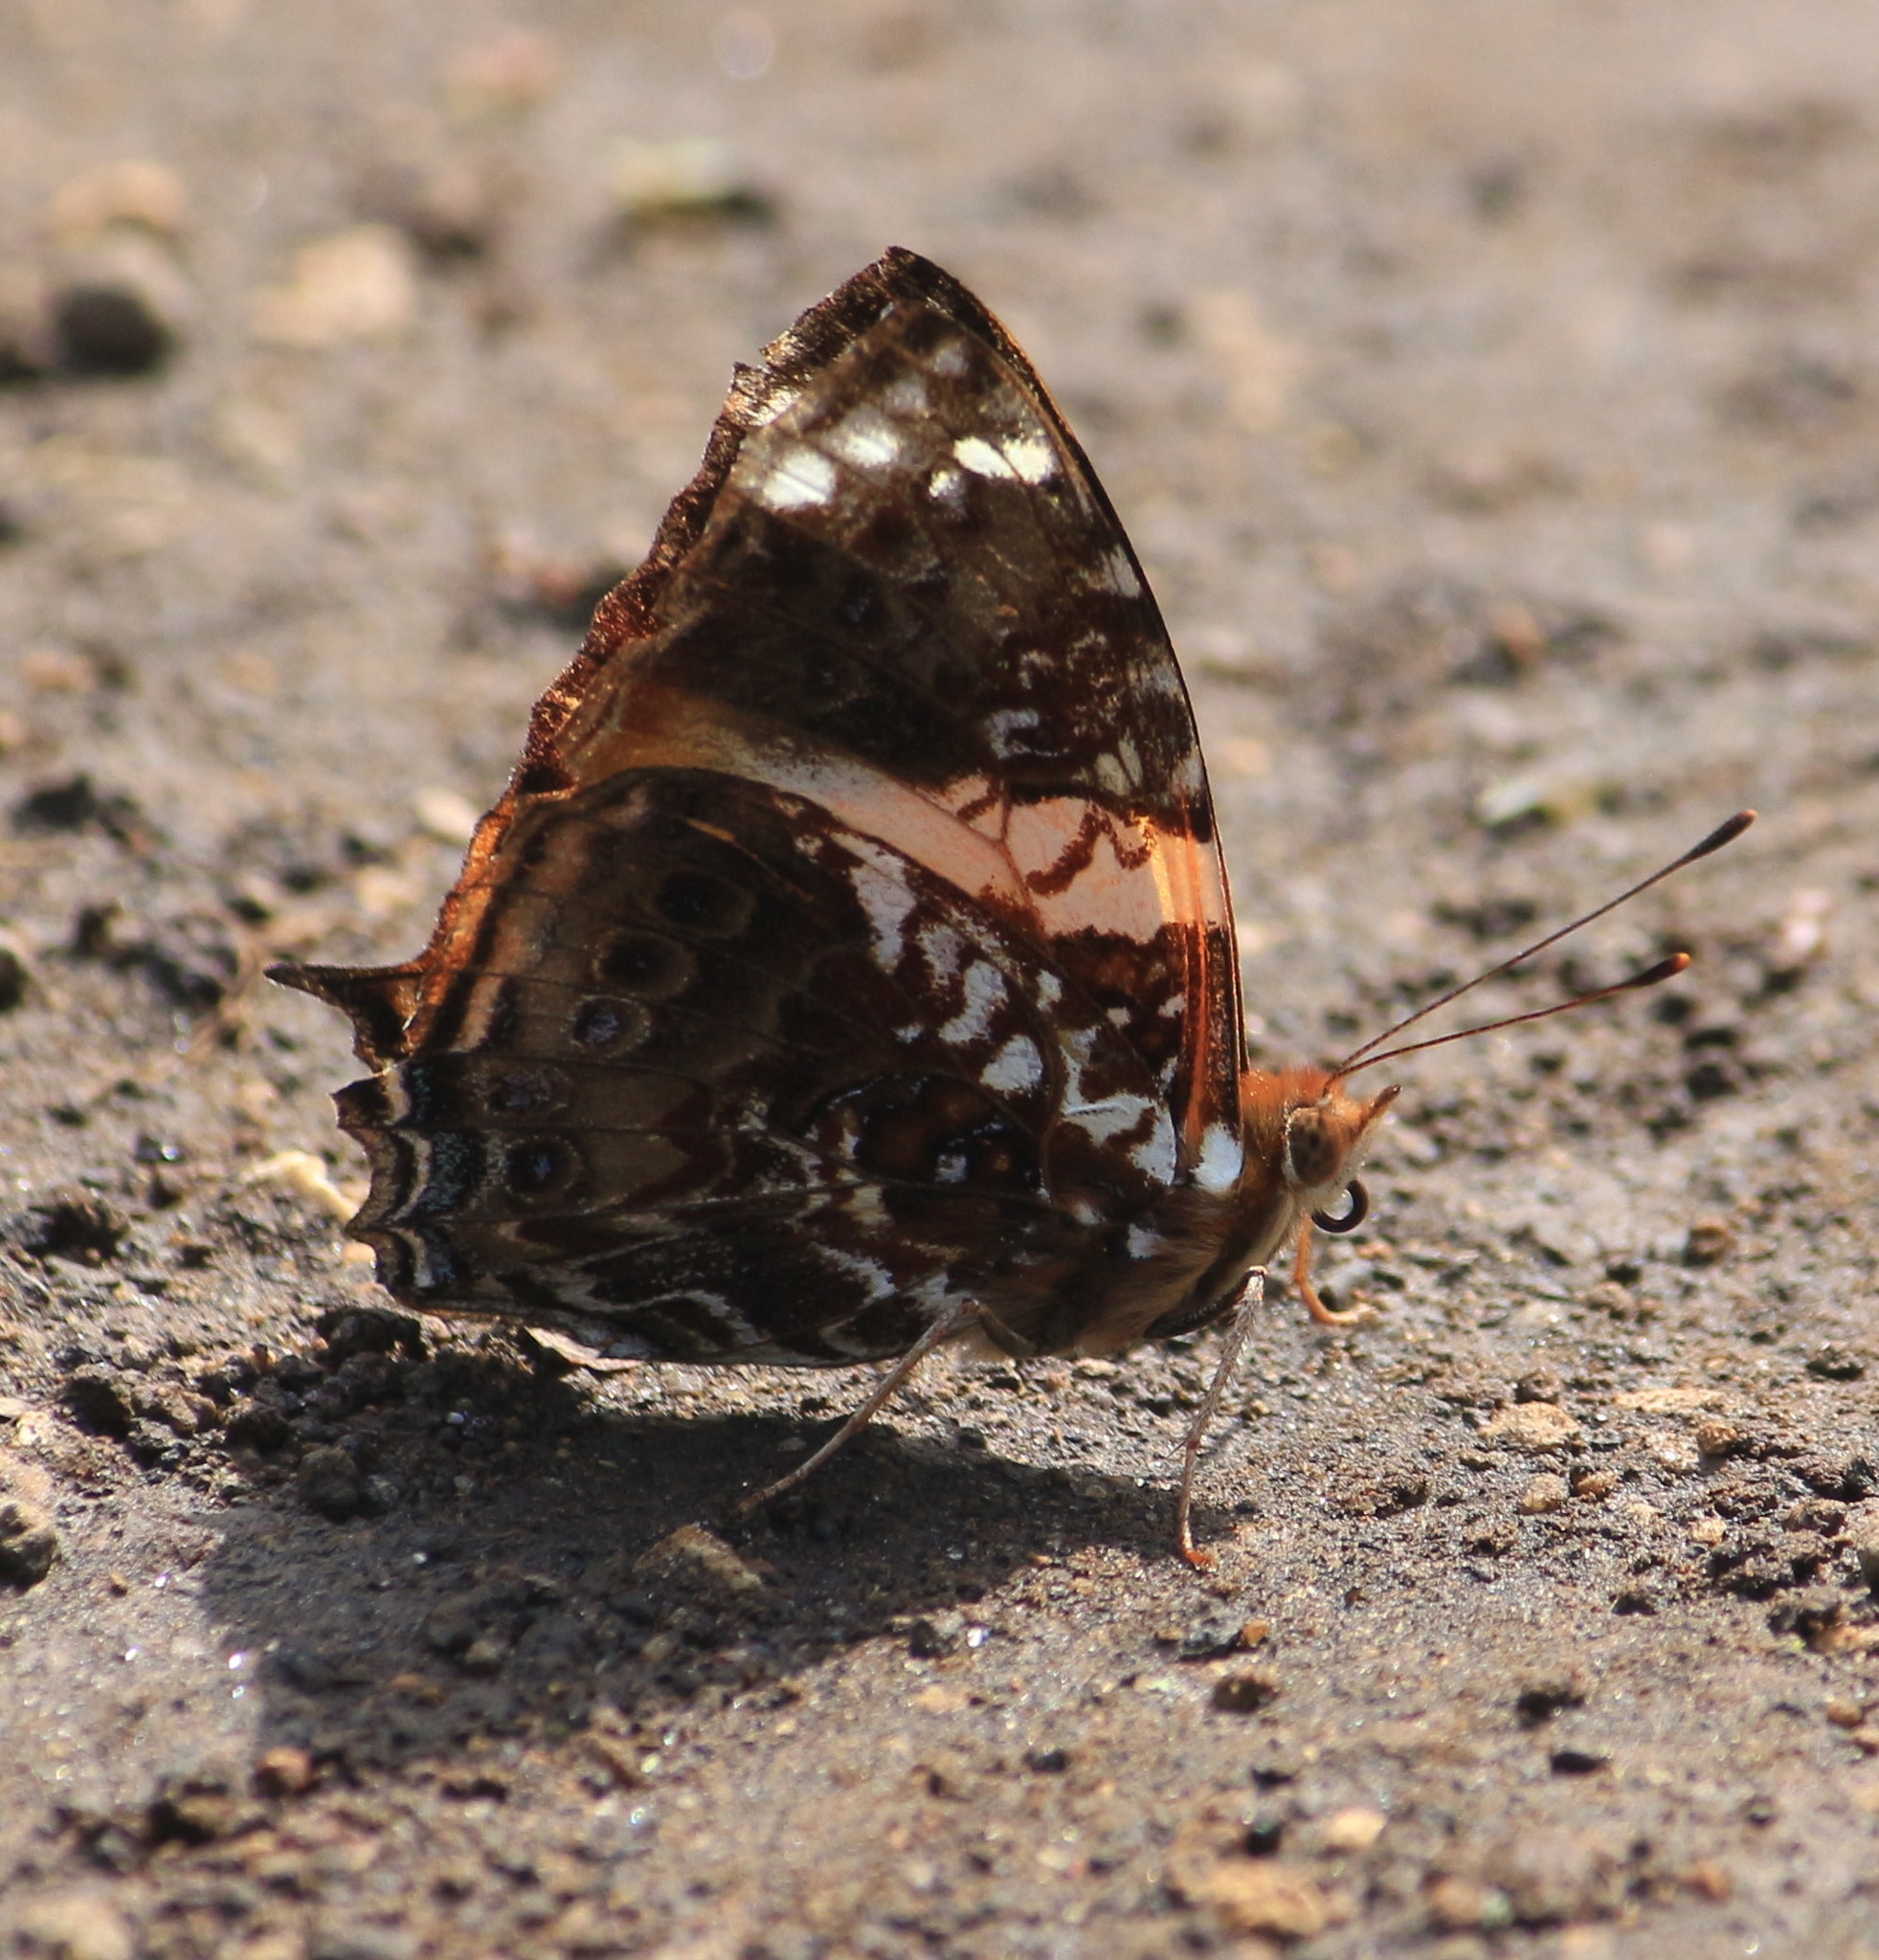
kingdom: Animalia
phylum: Arthropoda
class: Insecta
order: Lepidoptera
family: Nymphalidae
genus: Hypanartia
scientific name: Hypanartia godmanii
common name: Godman's mapwing
